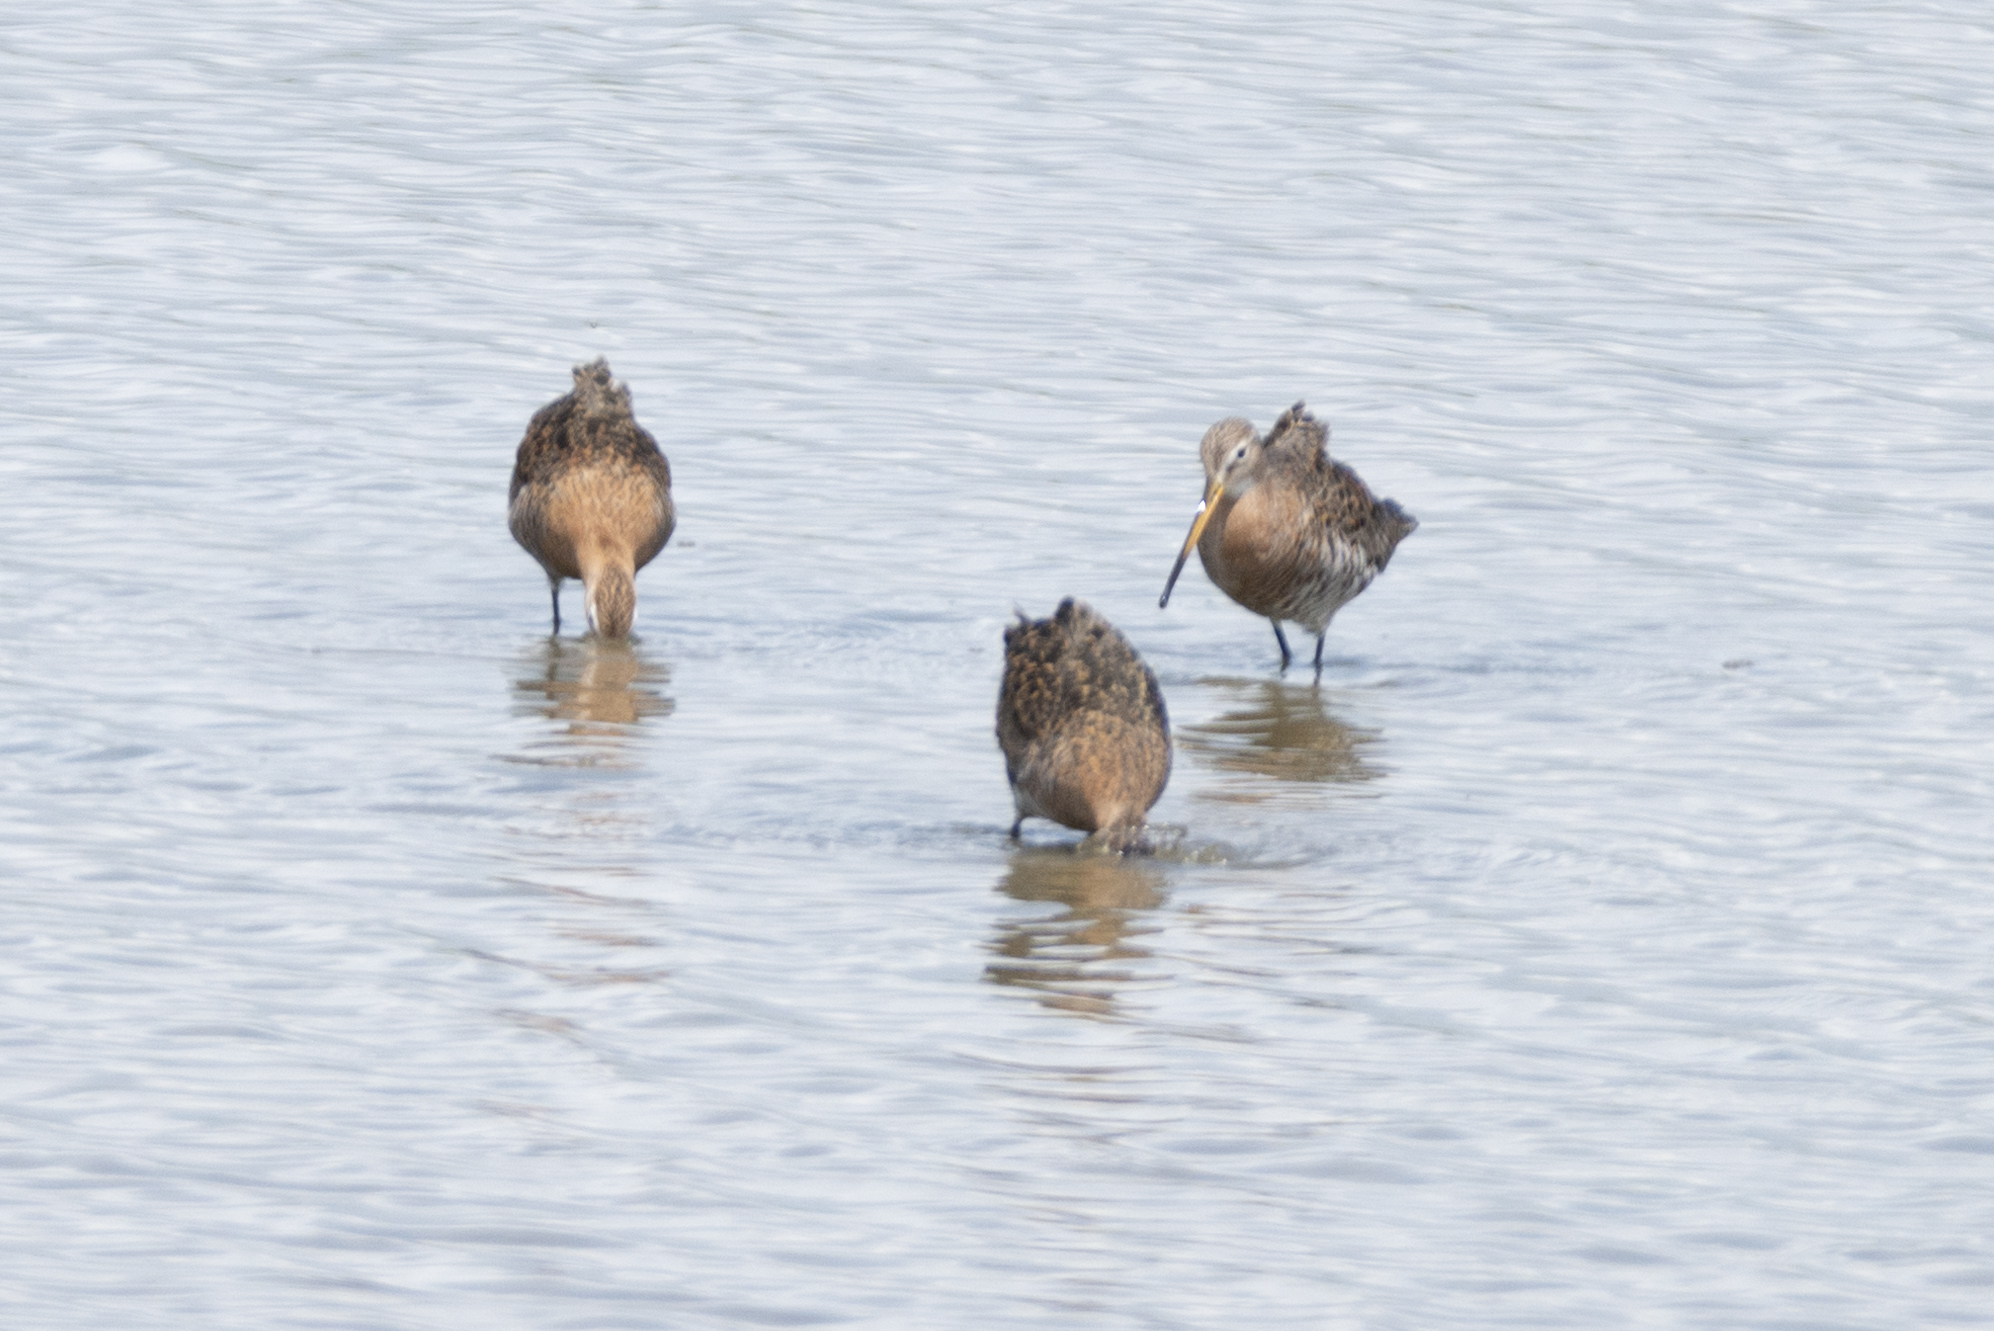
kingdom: Animalia
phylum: Chordata
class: Aves
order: Charadriiformes
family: Scolopacidae
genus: Limosa
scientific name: Limosa limosa
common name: Black-tailed godwit
